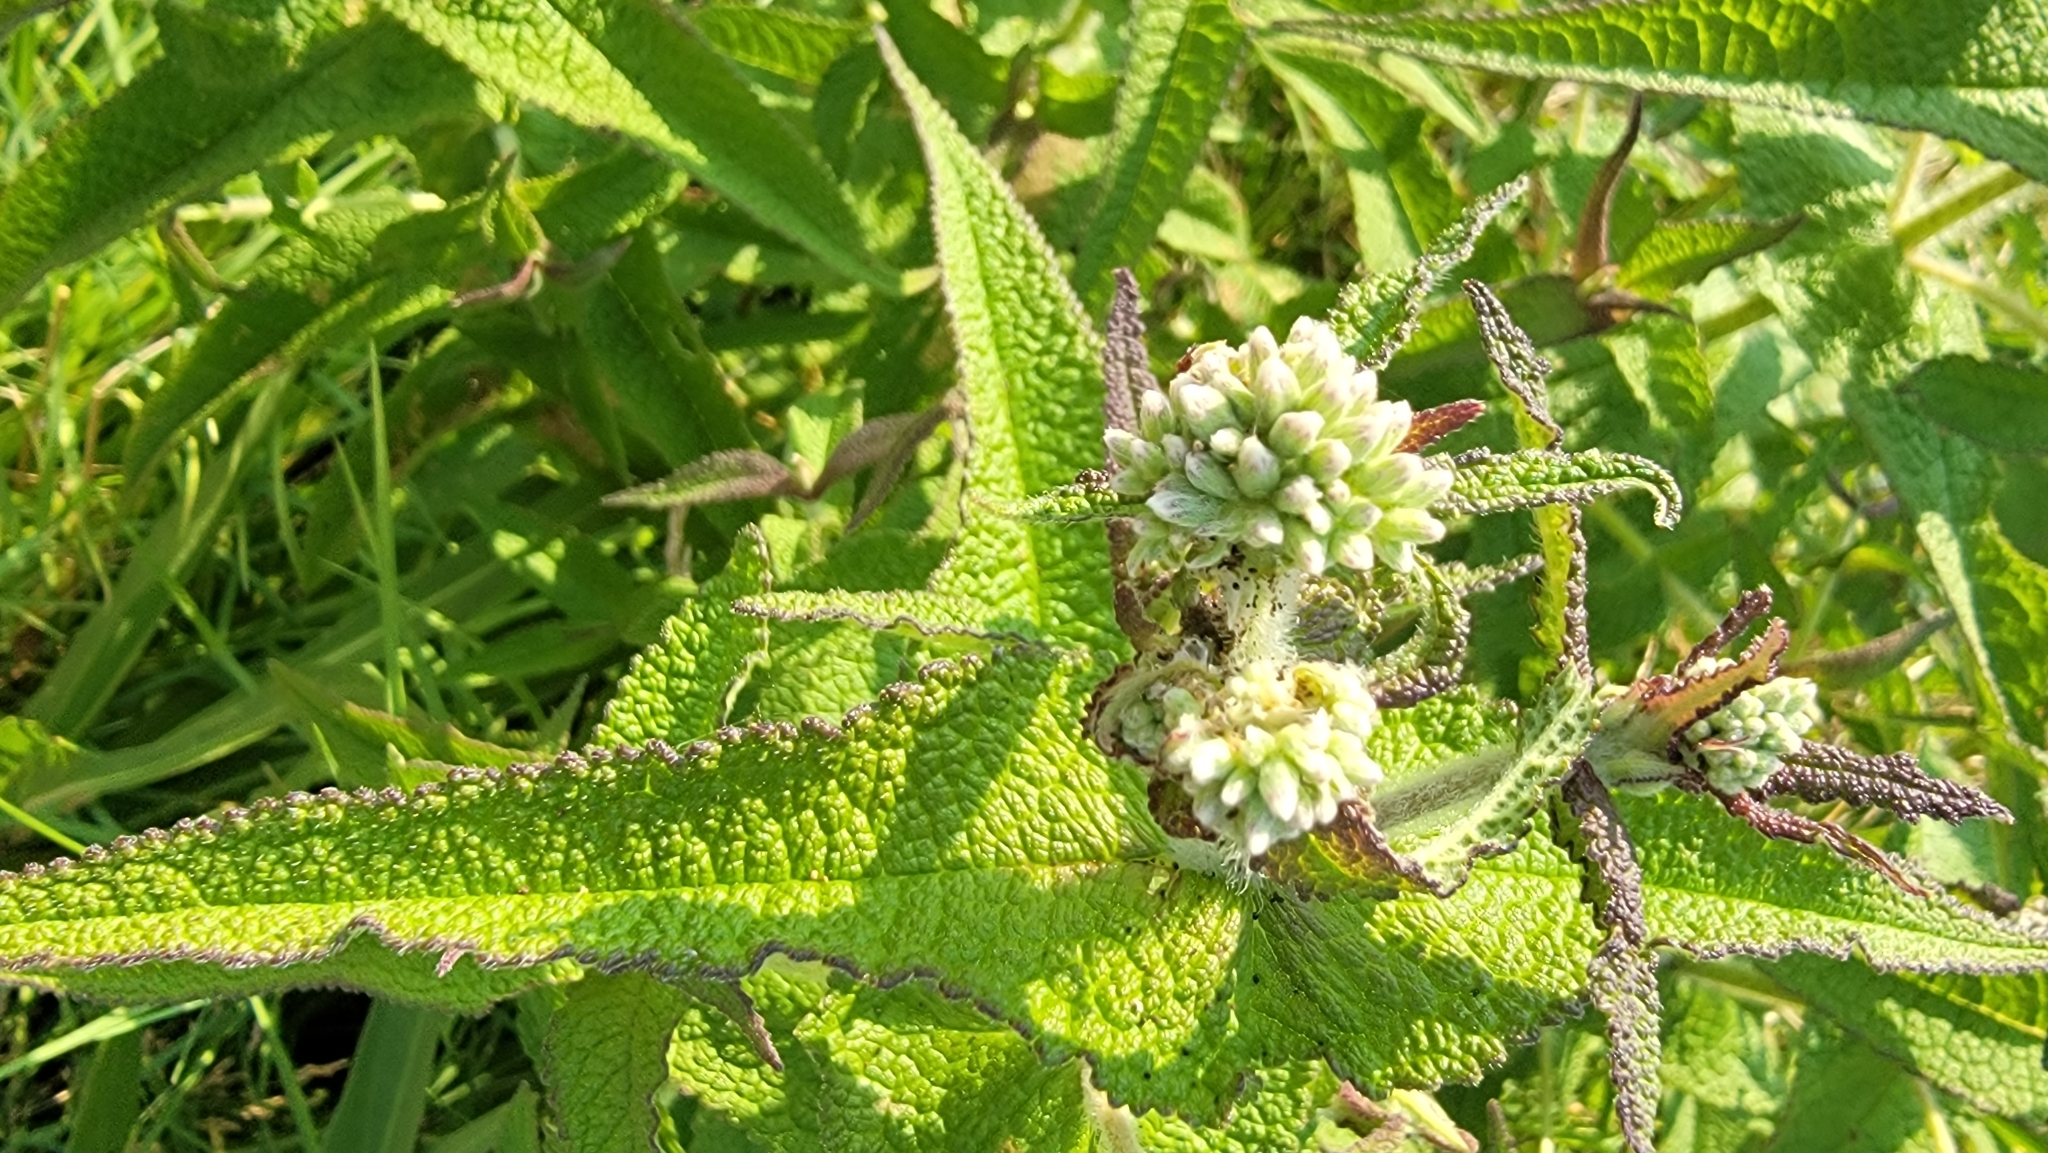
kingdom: Plantae
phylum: Tracheophyta
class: Magnoliopsida
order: Asterales
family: Asteraceae
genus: Eupatorium
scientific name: Eupatorium perfoliatum
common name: Boneset
